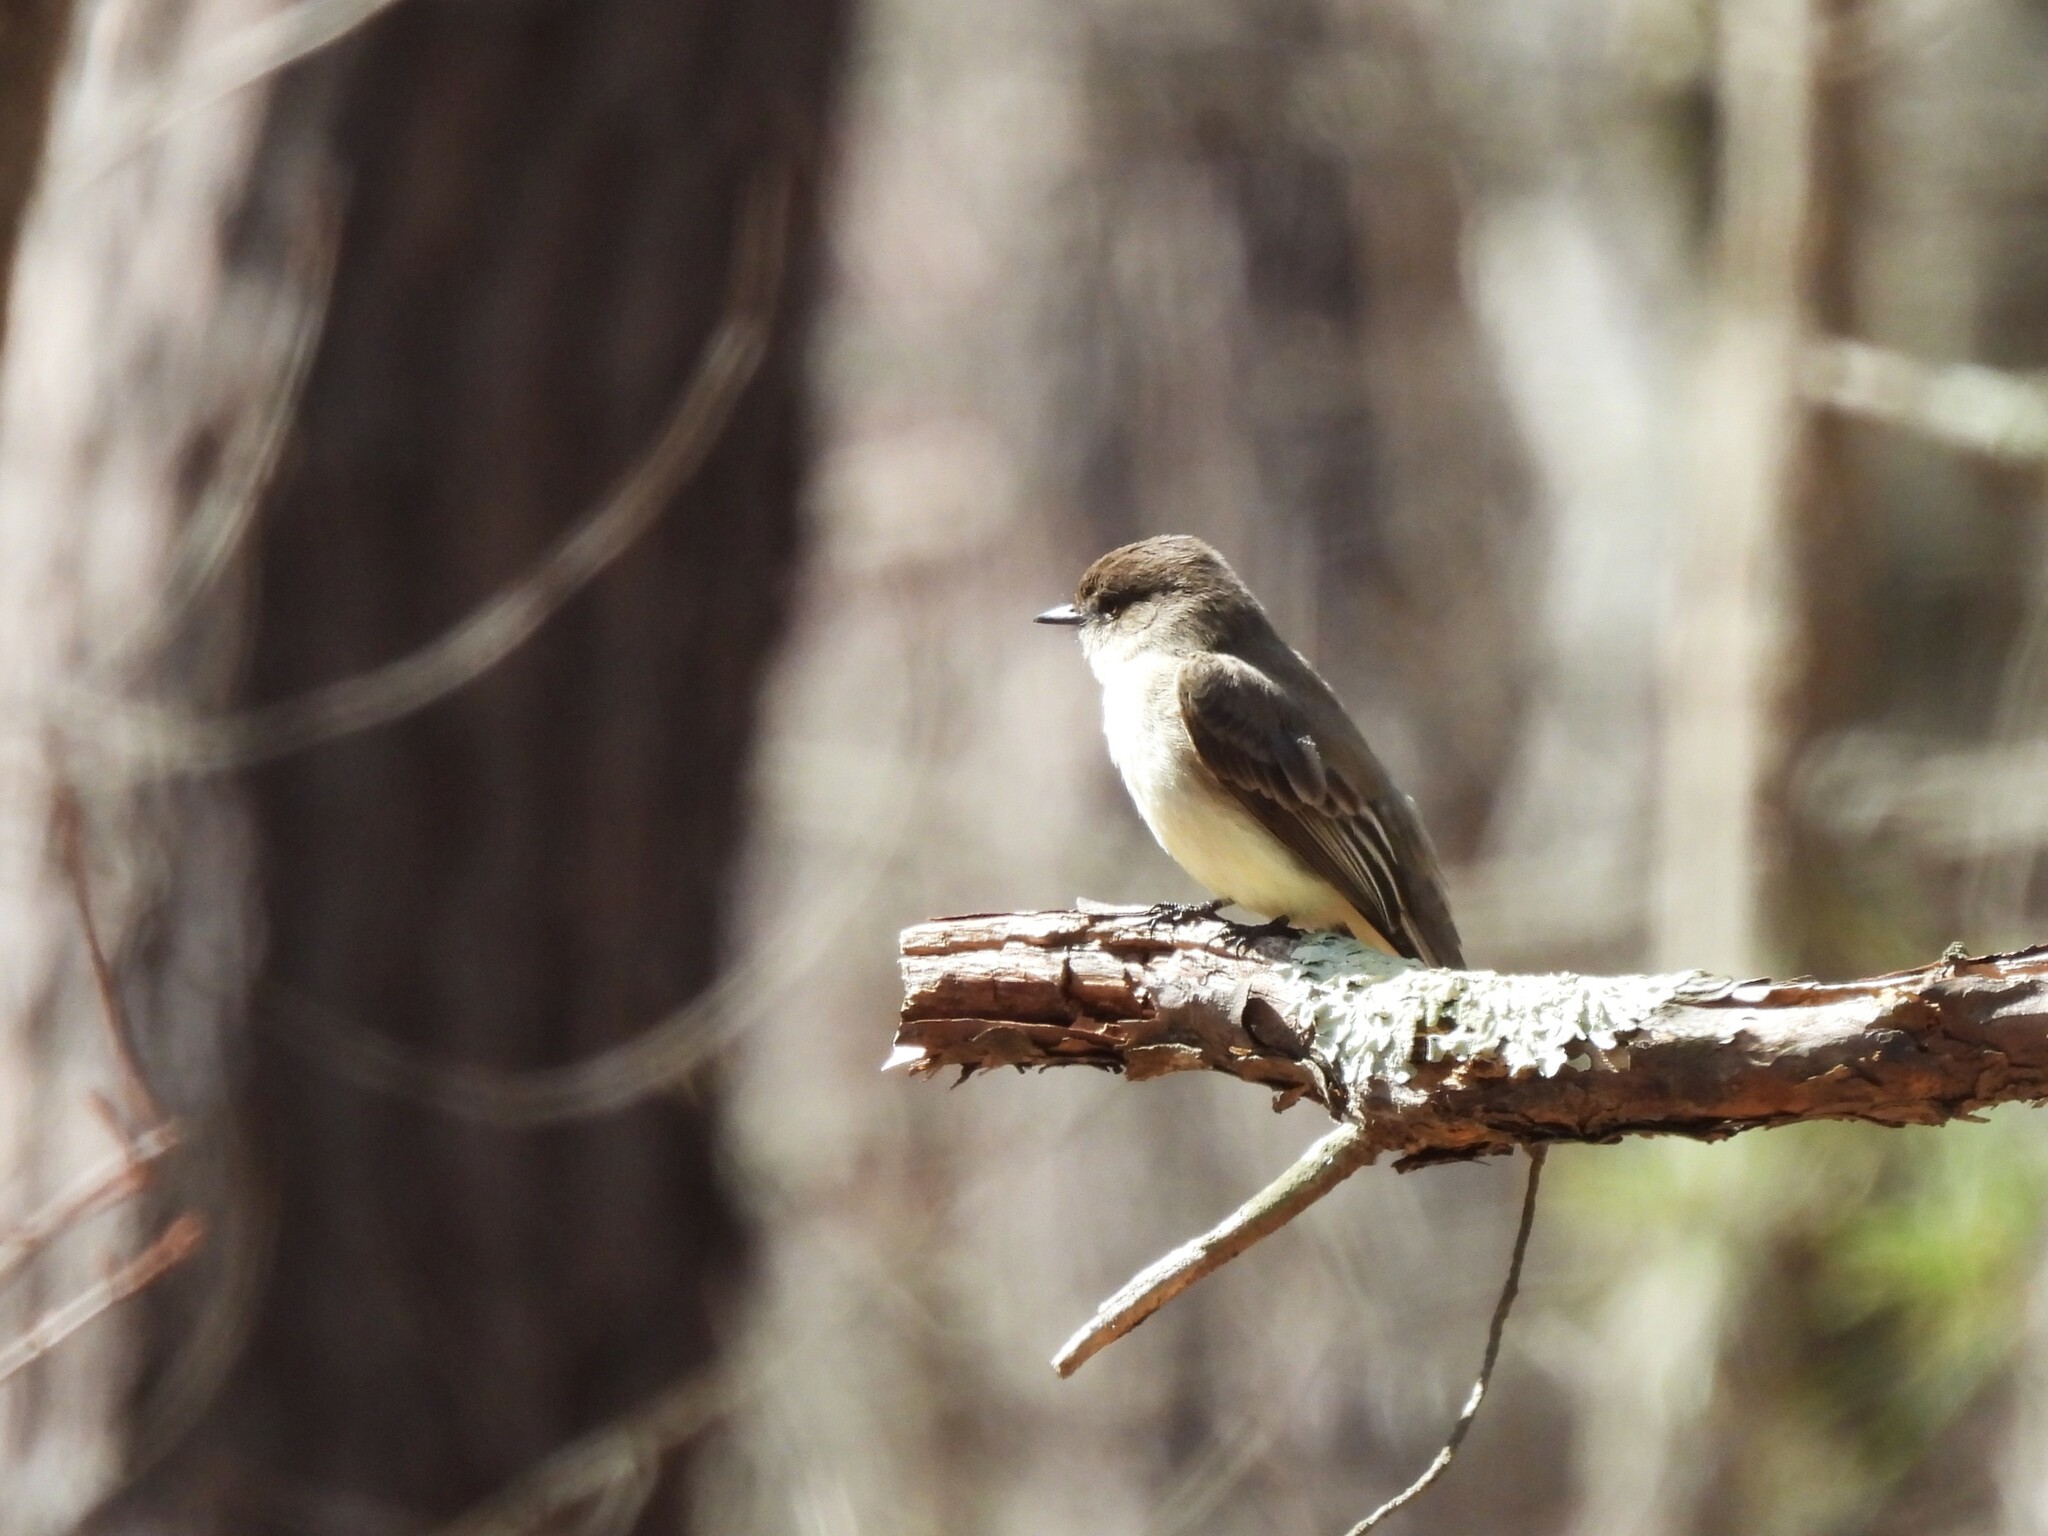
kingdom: Animalia
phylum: Chordata
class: Aves
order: Passeriformes
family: Tyrannidae
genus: Sayornis
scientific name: Sayornis phoebe
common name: Eastern phoebe
